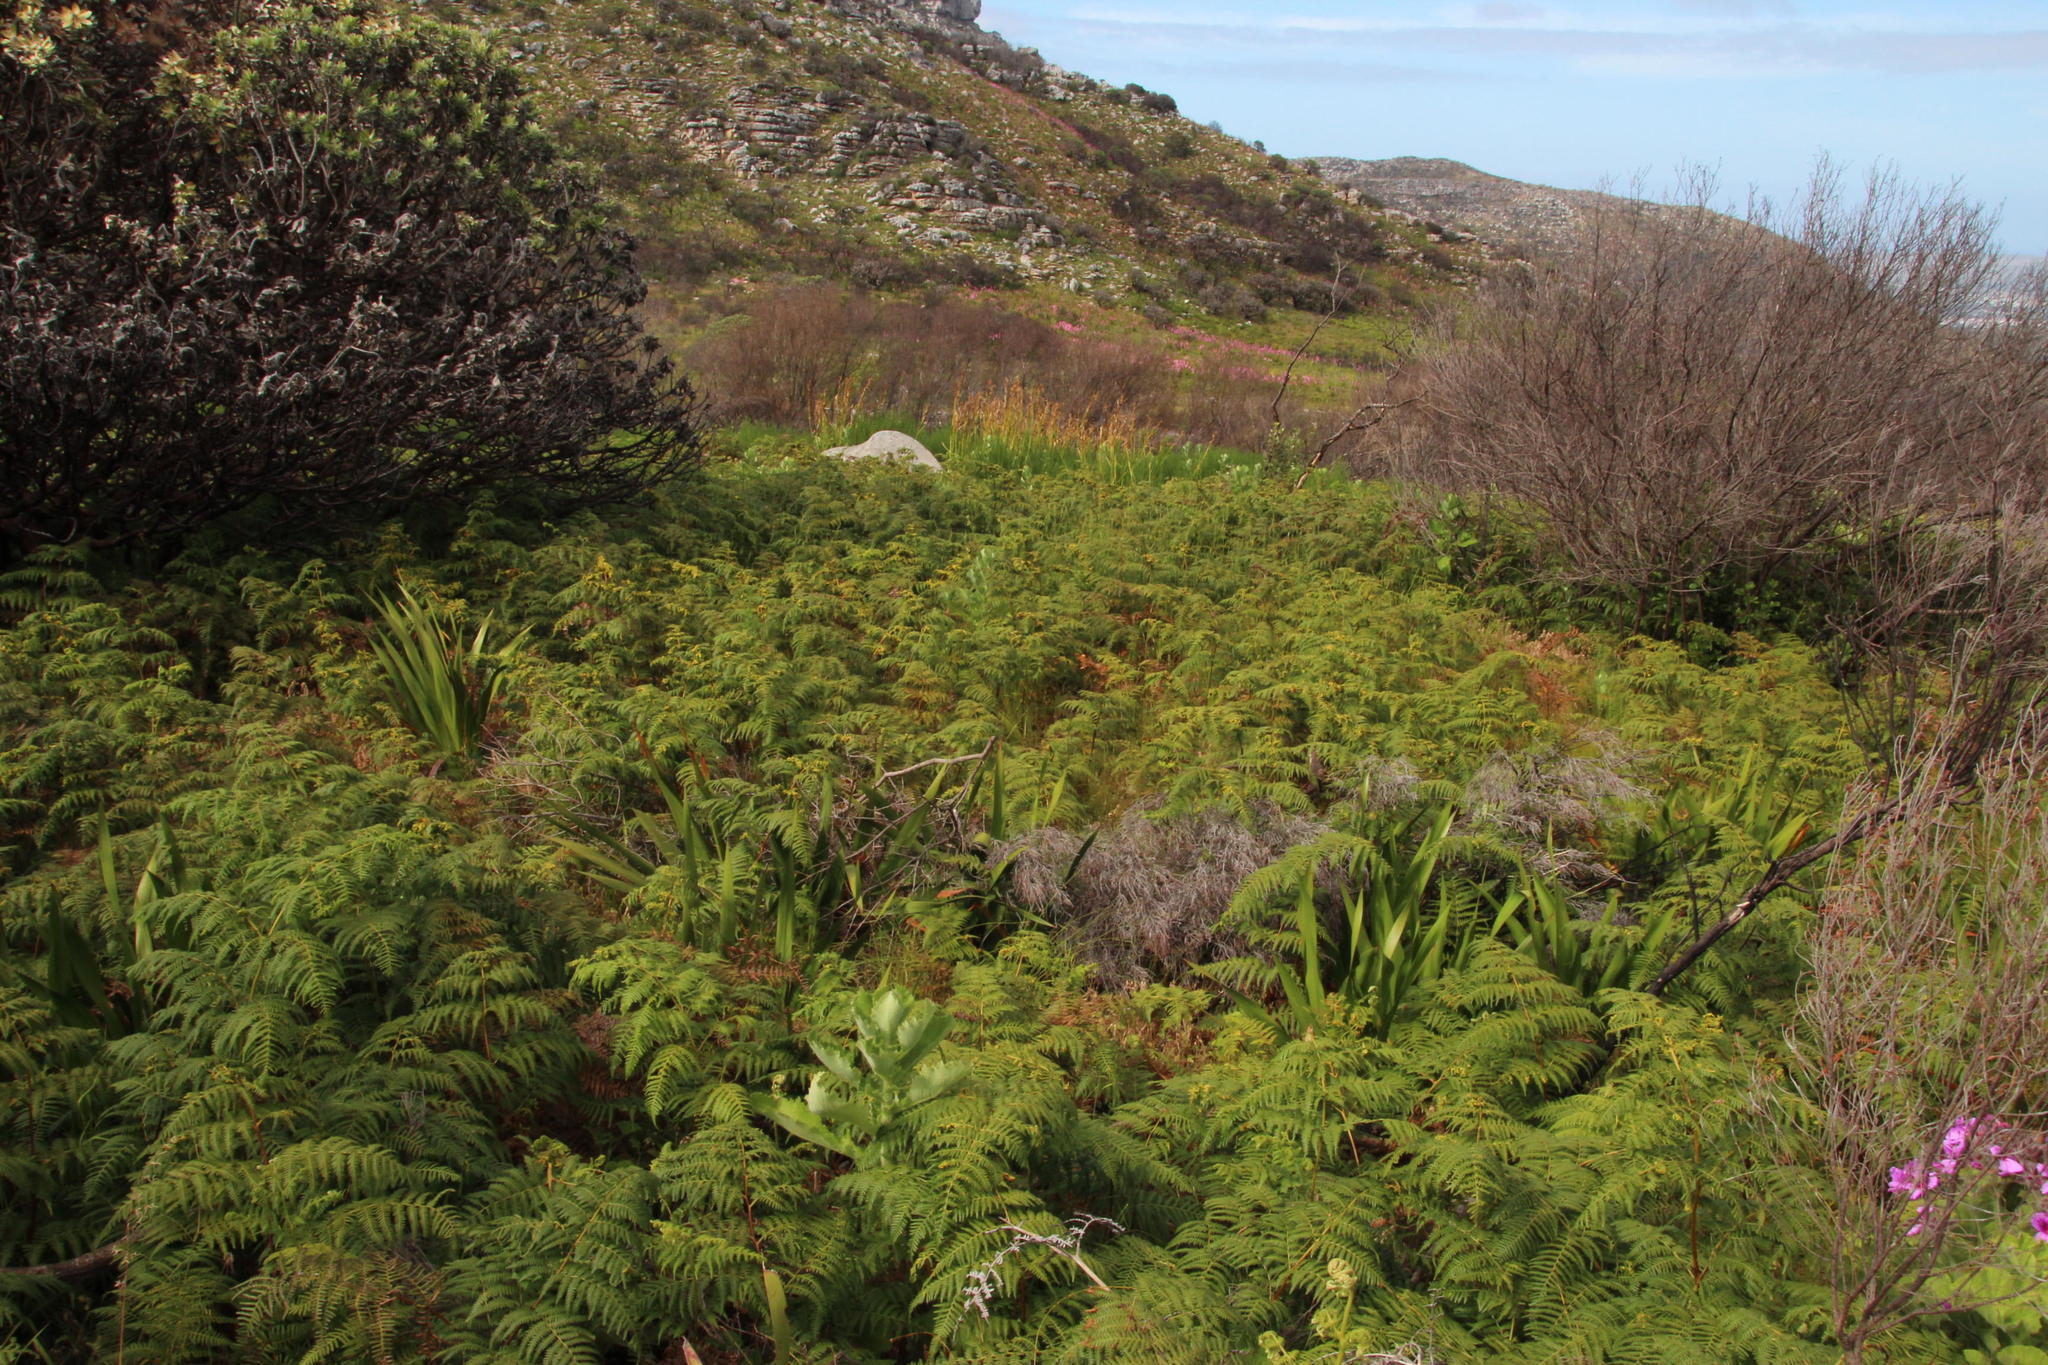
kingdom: Plantae
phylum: Tracheophyta
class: Polypodiopsida
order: Polypodiales
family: Dennstaedtiaceae
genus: Pteridium
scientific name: Pteridium aquilinum
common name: Bracken
